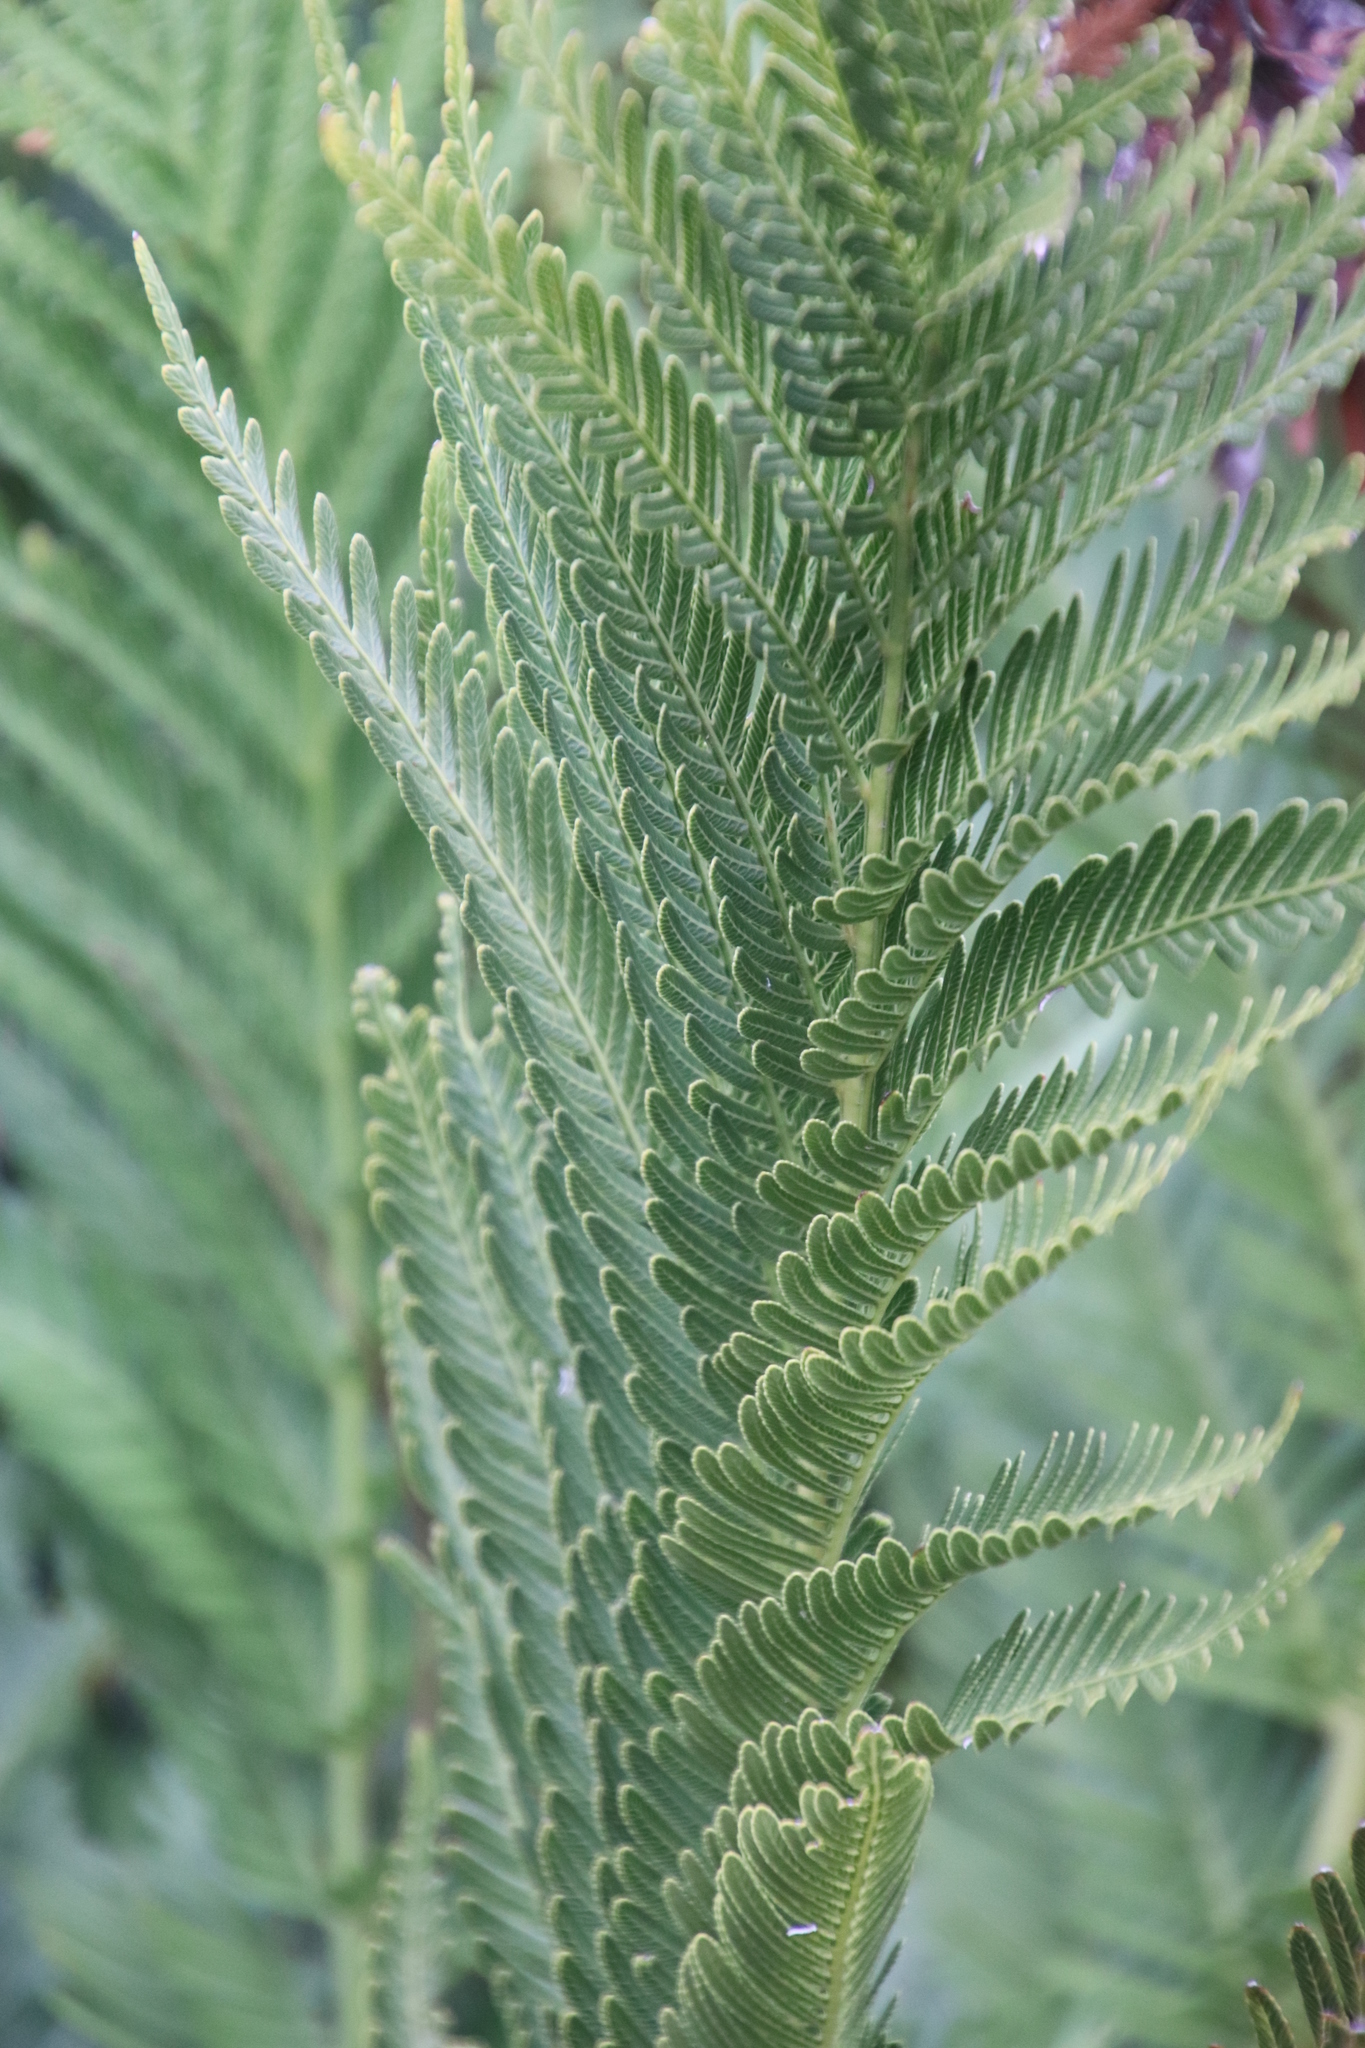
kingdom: Plantae
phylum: Tracheophyta
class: Polypodiopsida
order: Osmundales
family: Osmundaceae
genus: Todea
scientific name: Todea barbara
